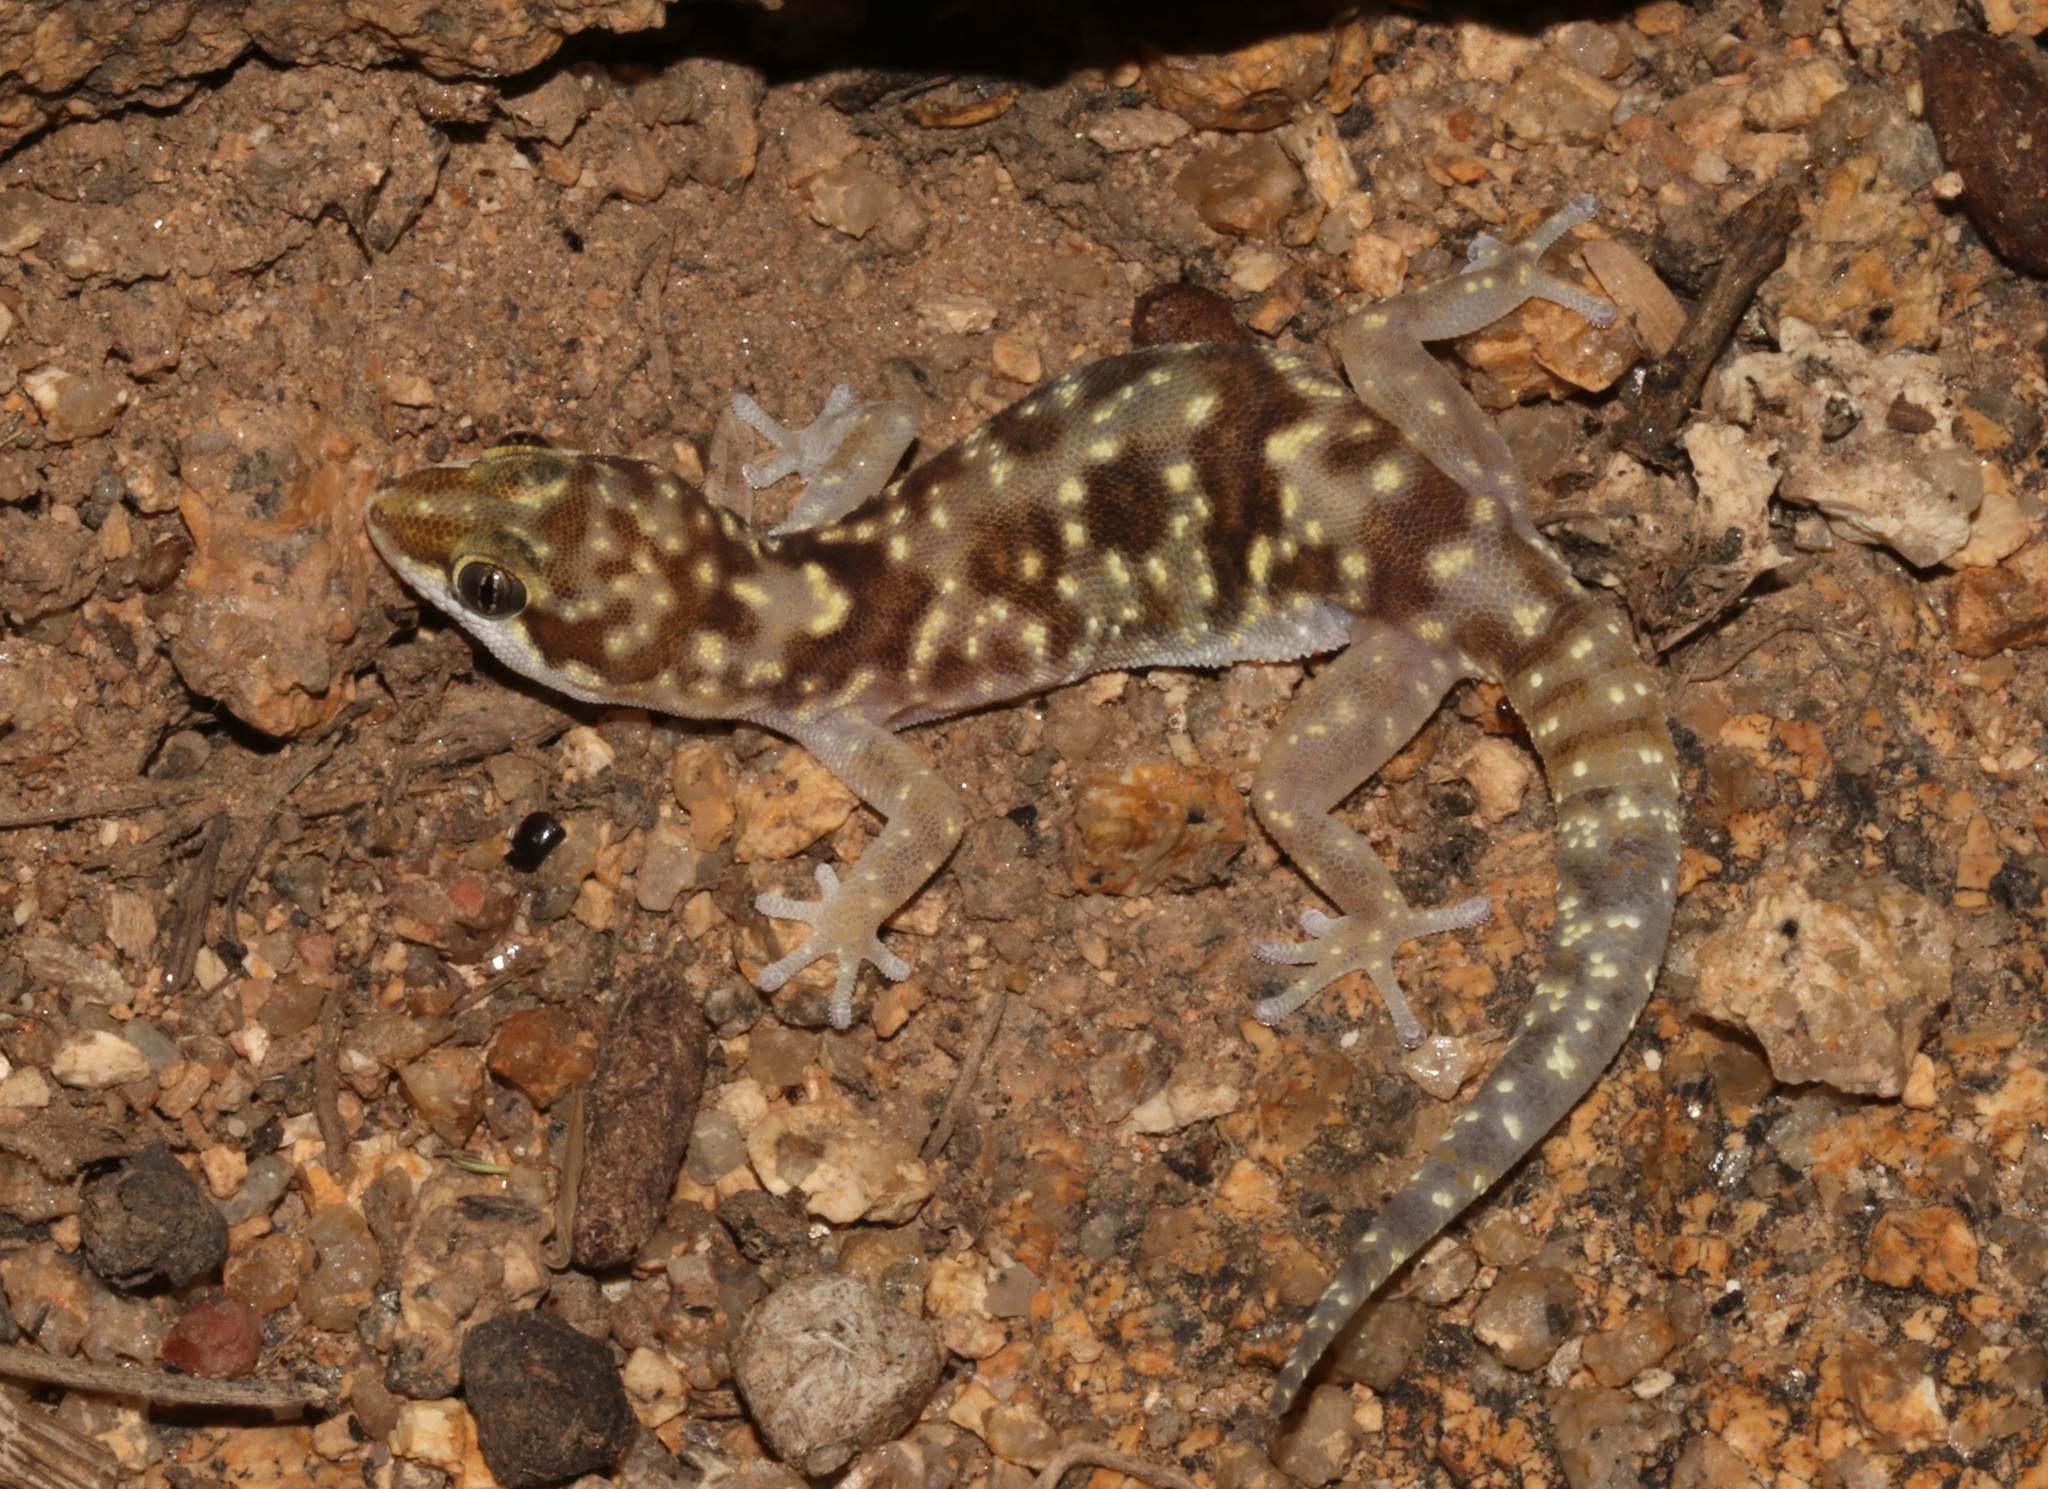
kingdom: Animalia
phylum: Chordata
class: Squamata
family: Gekkonidae
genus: Pachydactylus
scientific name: Pachydactylus bicolor
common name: Two-colored thick-toed gecko
